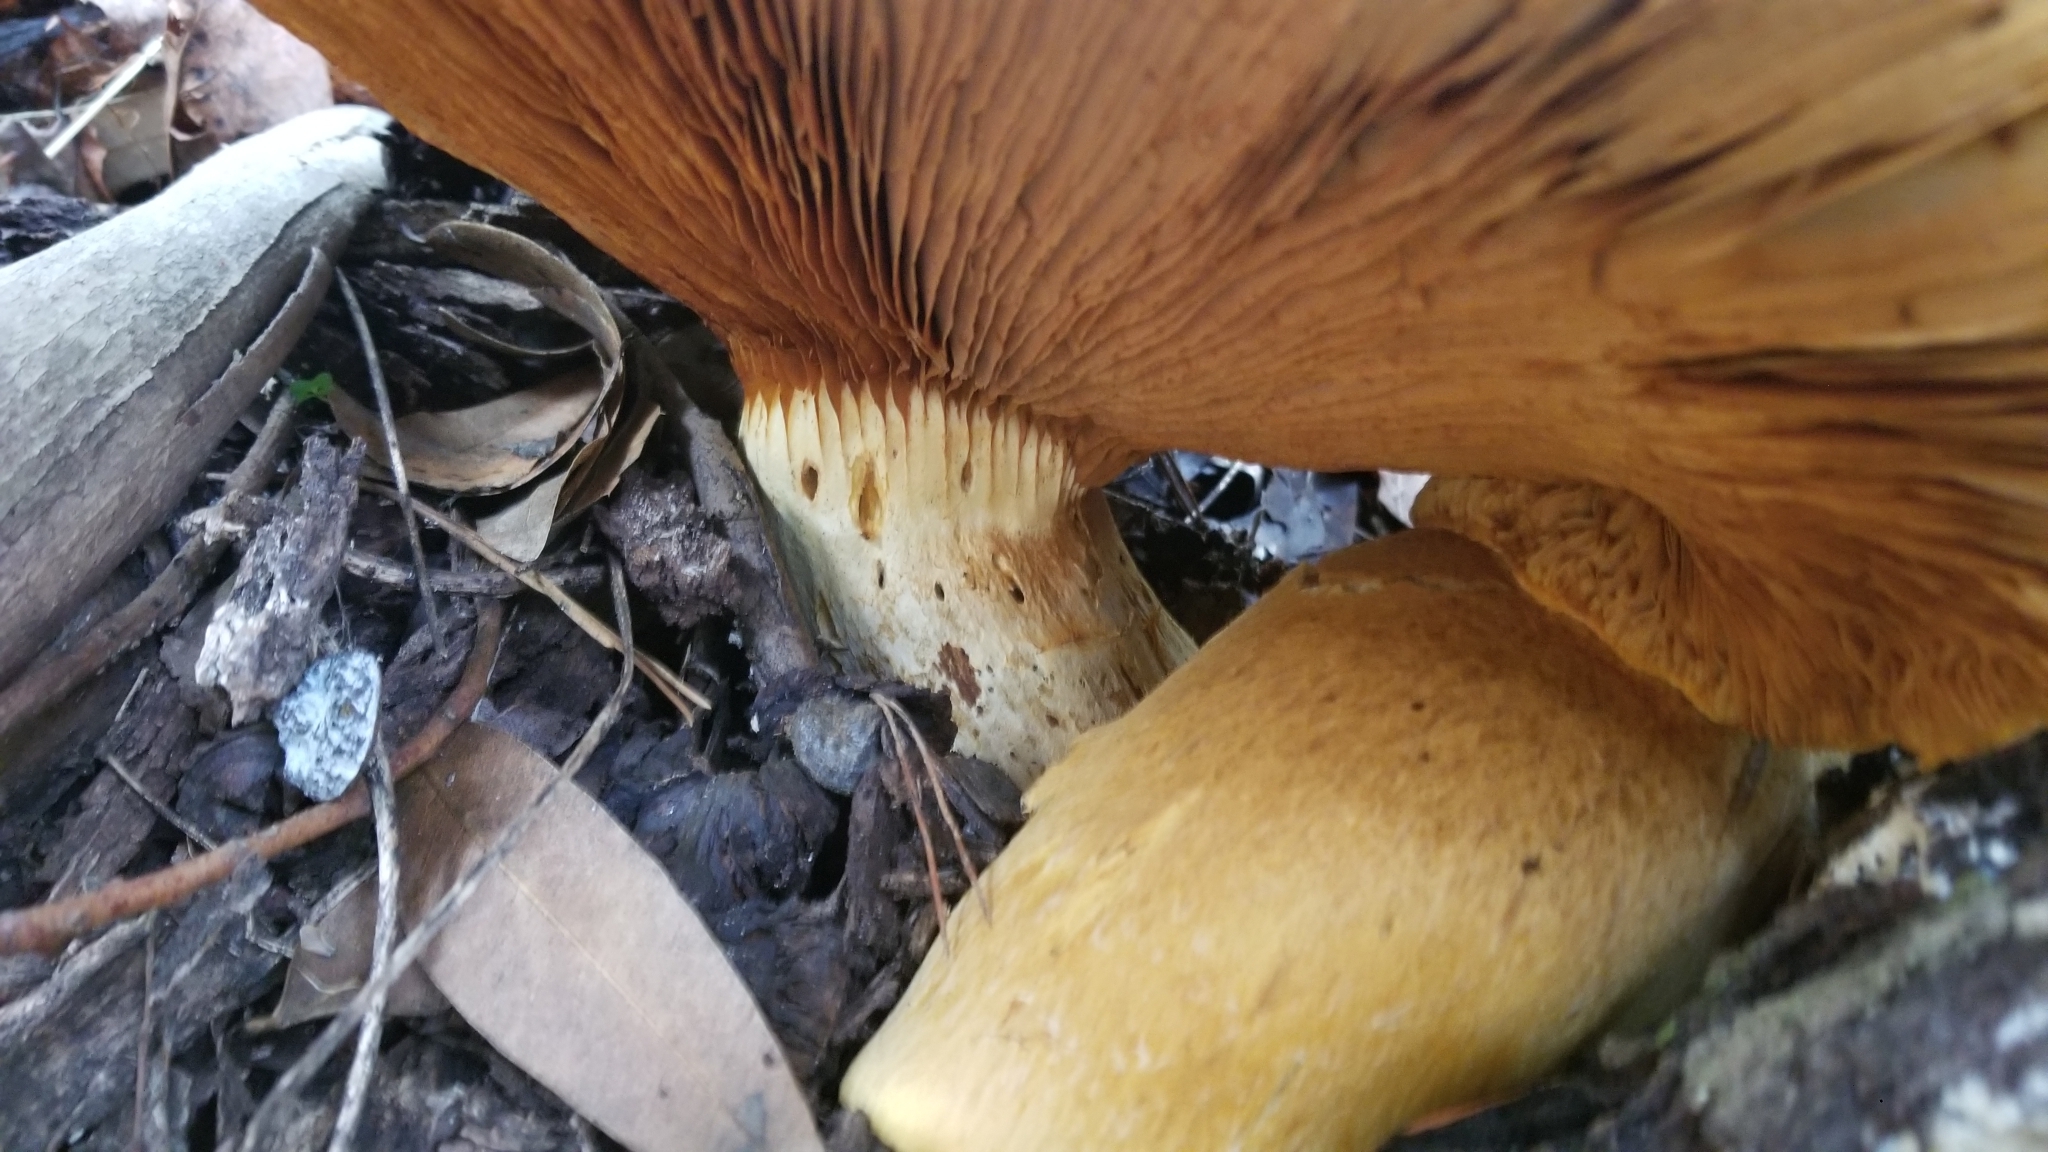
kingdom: Fungi
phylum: Basidiomycota
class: Agaricomycetes
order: Agaricales
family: Hymenogastraceae
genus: Gymnopilus
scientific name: Gymnopilus ventricosus
